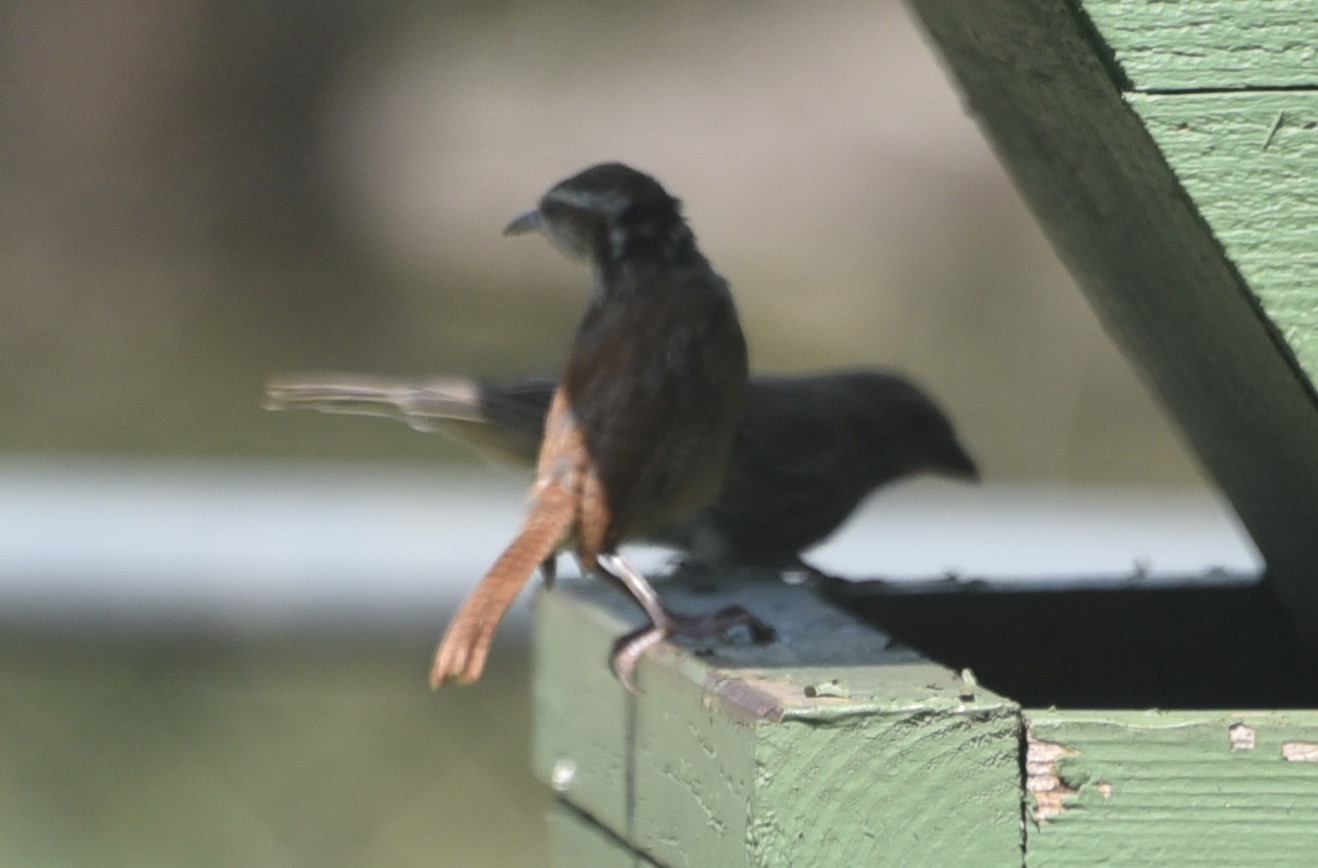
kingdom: Animalia
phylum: Chordata
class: Aves
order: Passeriformes
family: Troglodytidae
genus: Thryothorus
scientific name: Thryothorus ludovicianus
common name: Carolina wren
